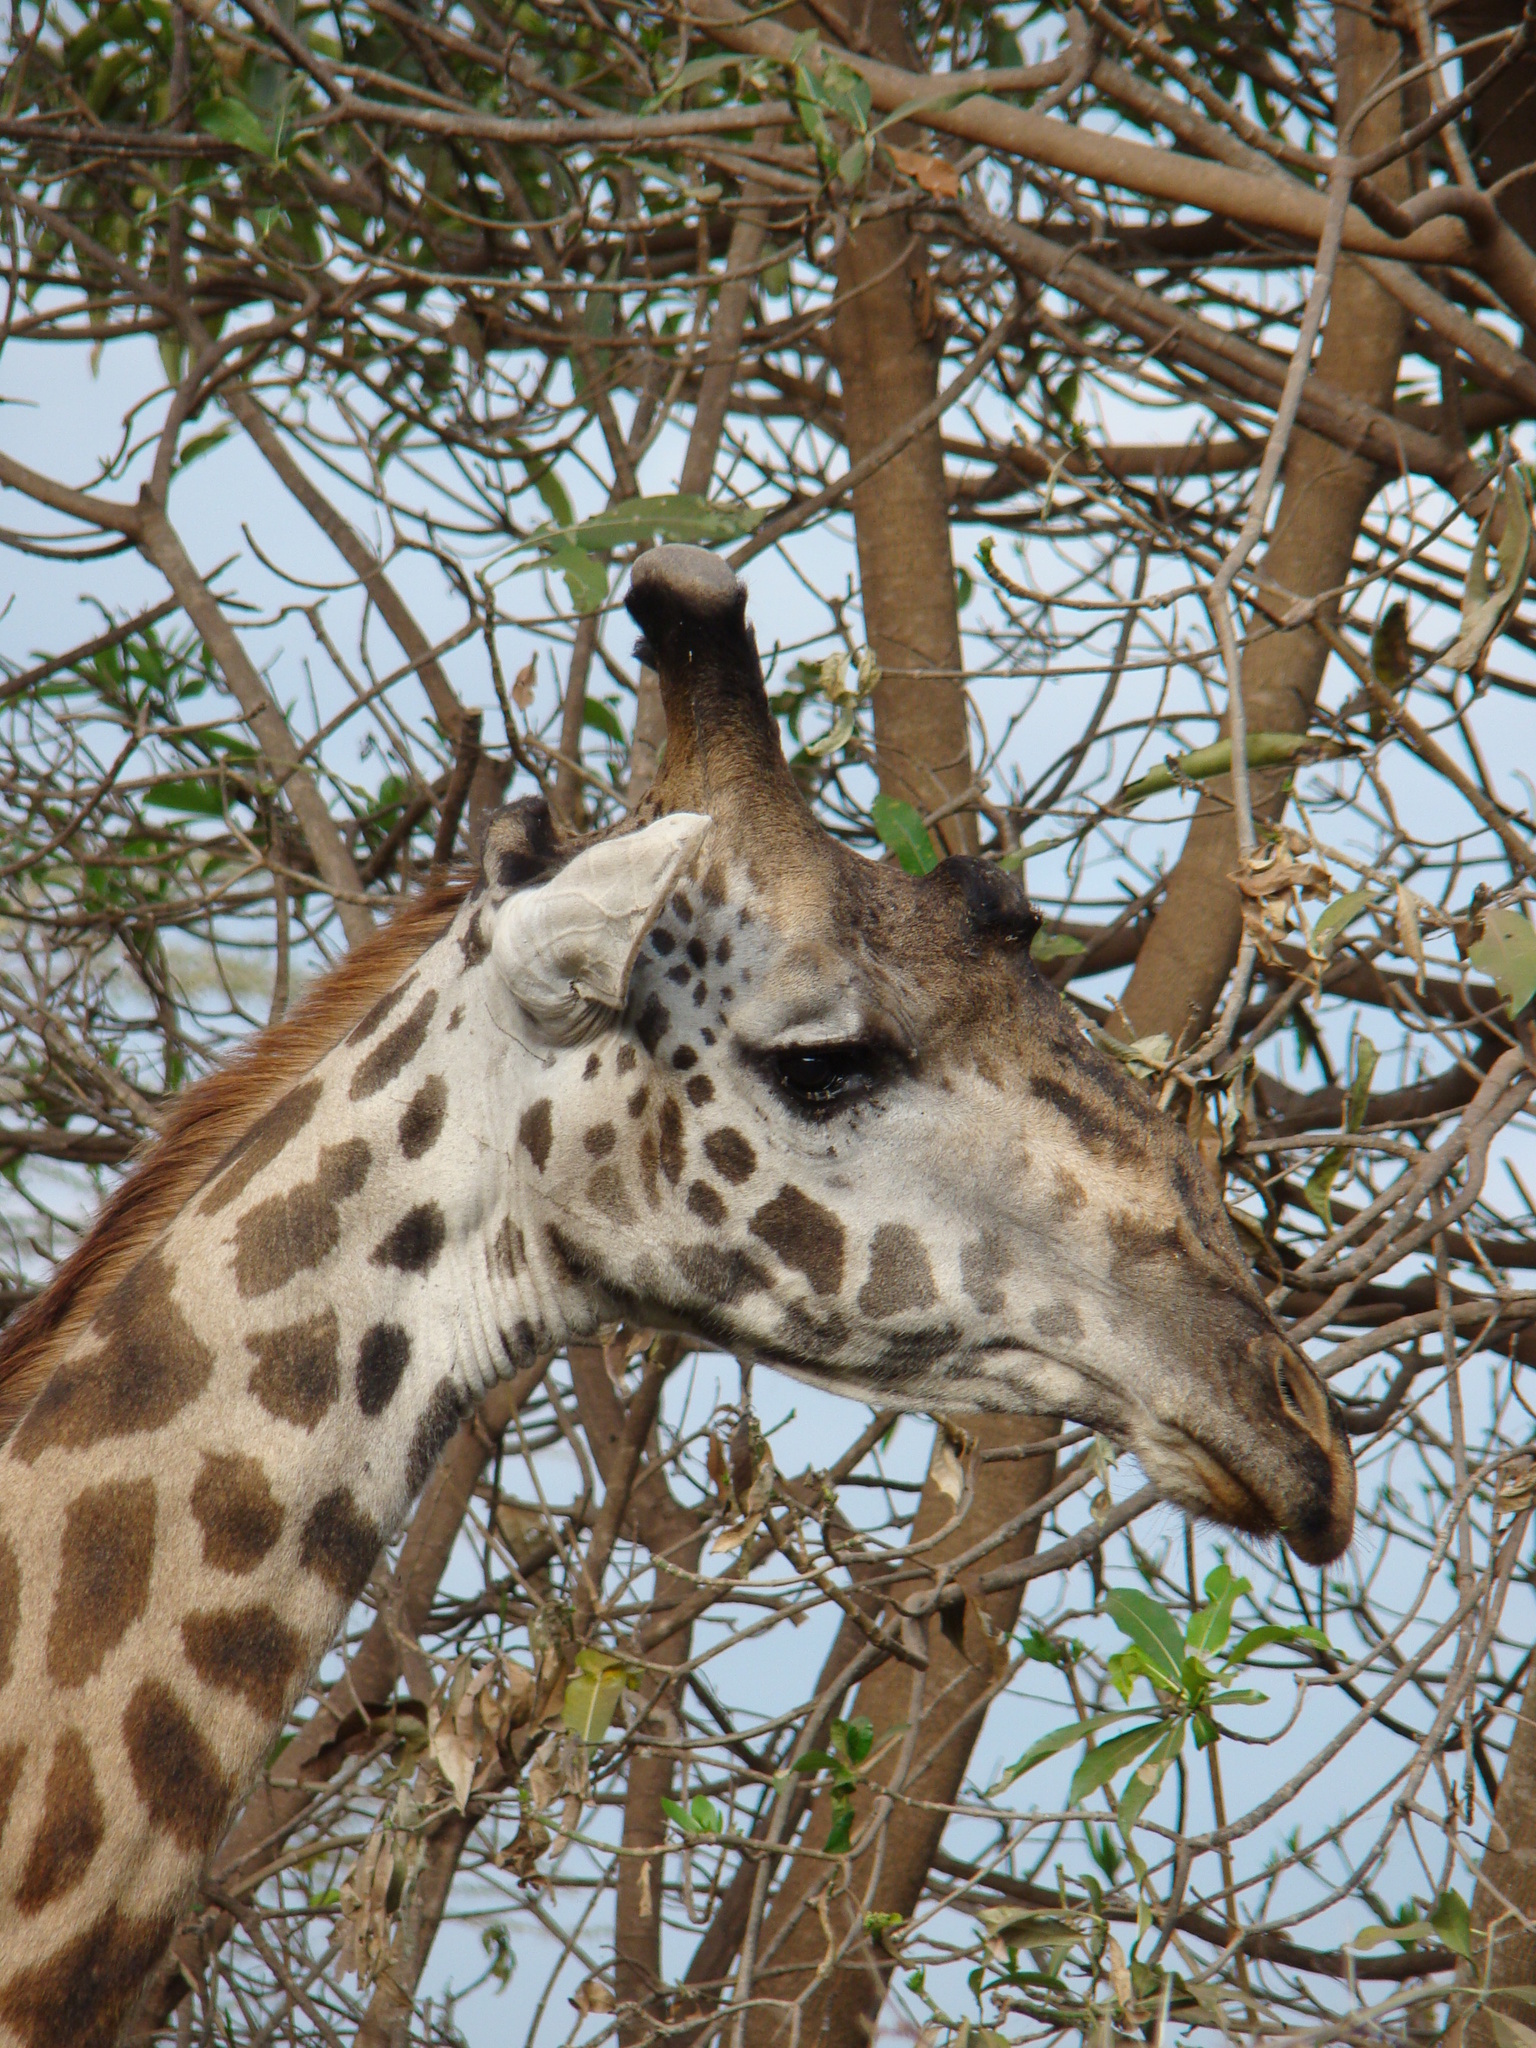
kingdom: Animalia
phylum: Chordata
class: Mammalia
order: Artiodactyla
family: Giraffidae
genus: Giraffa
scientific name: Giraffa tippelskirchi
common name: Masai giraffe
